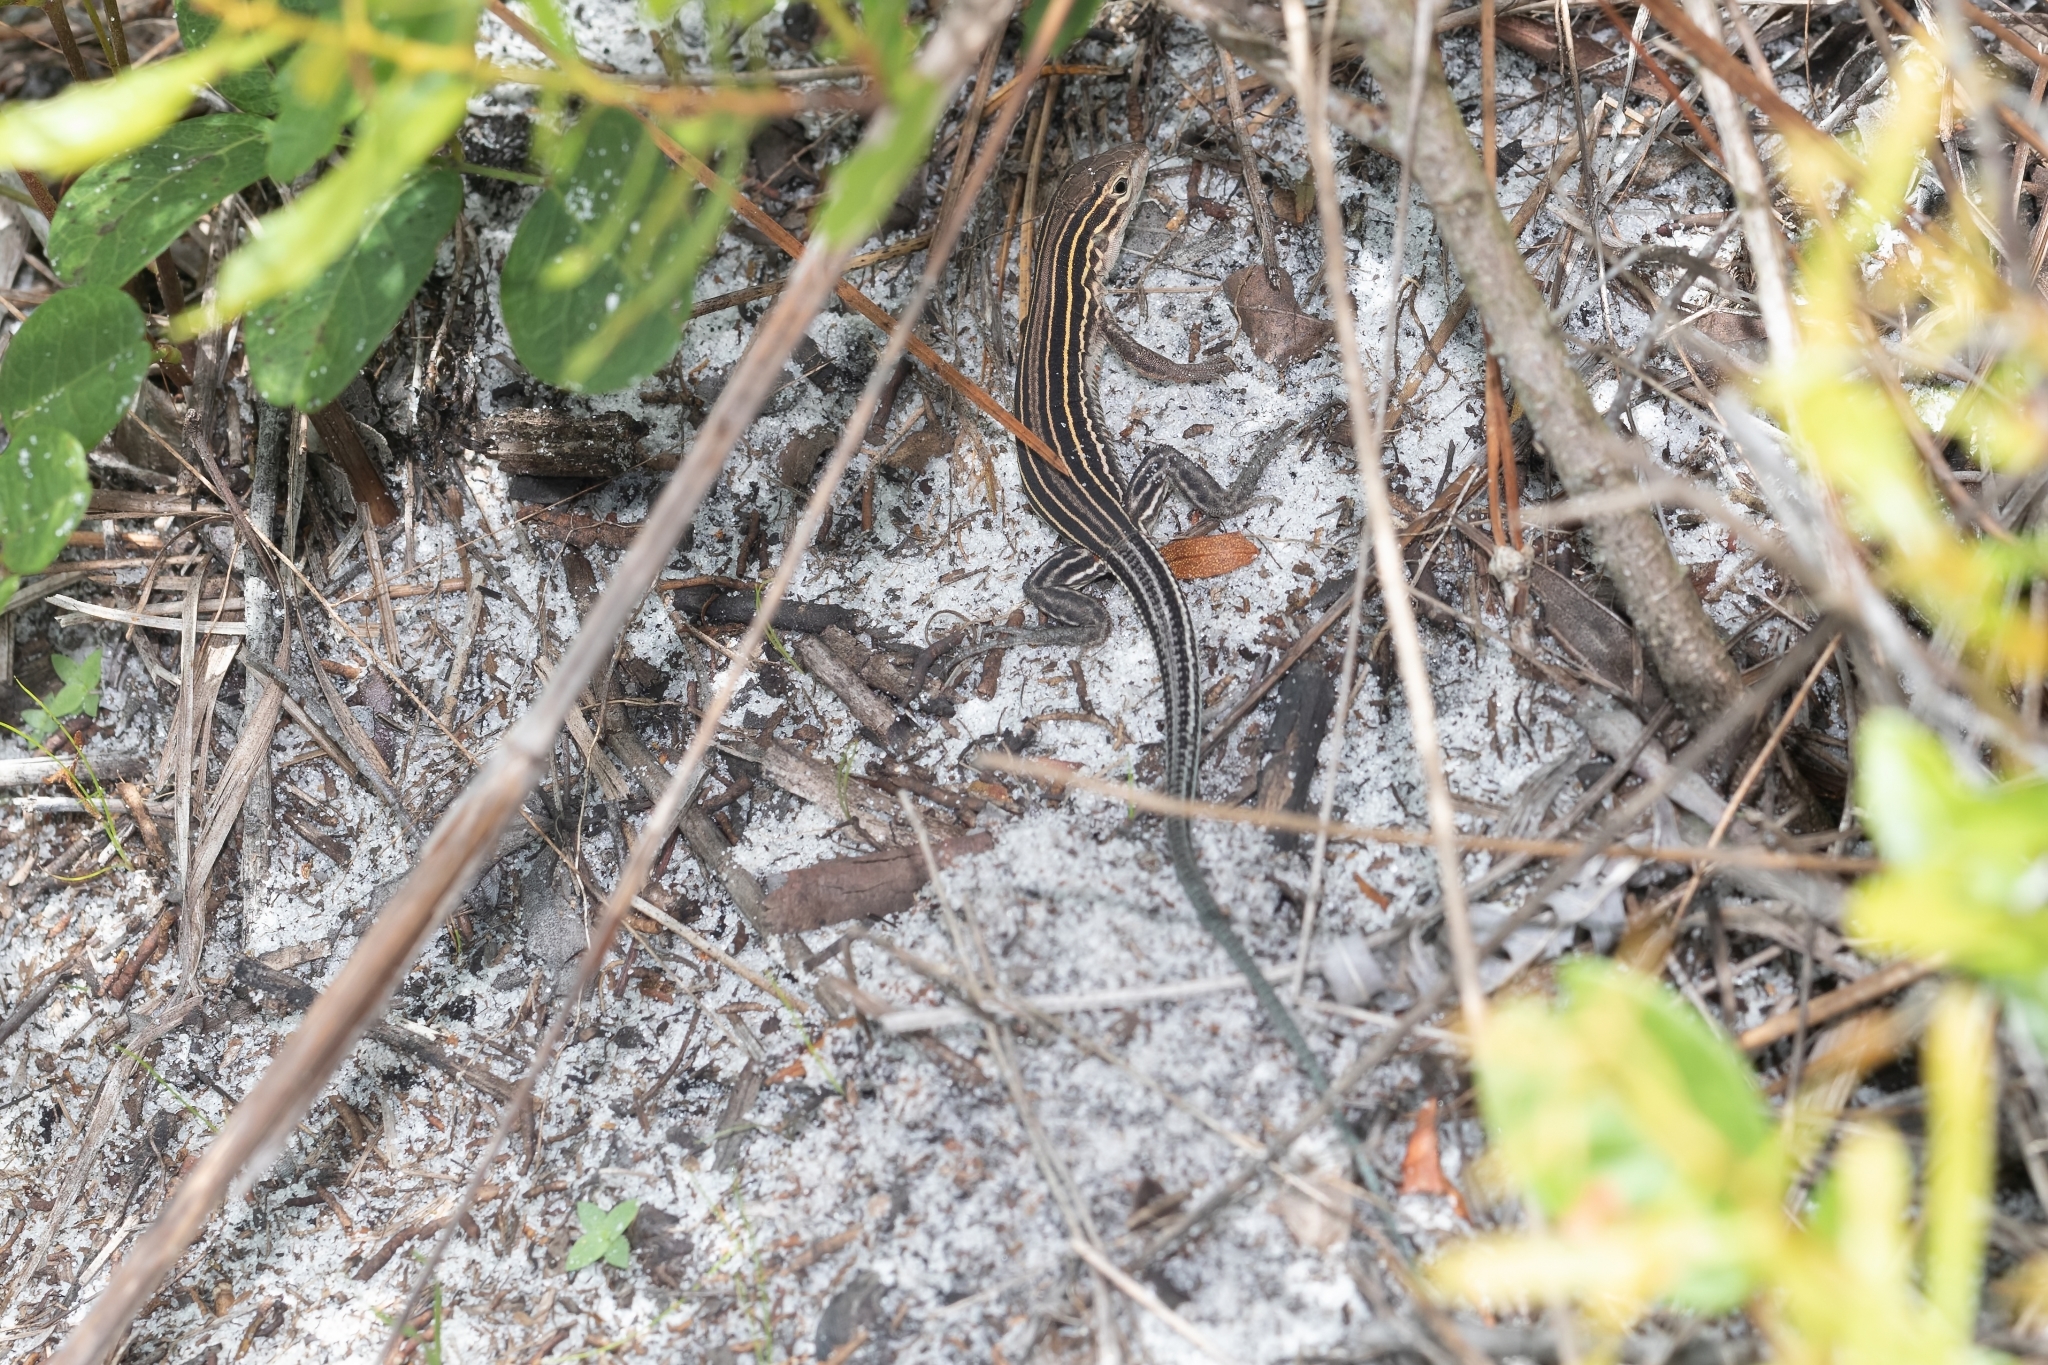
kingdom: Animalia
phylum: Chordata
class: Squamata
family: Teiidae
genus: Aspidoscelis
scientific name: Aspidoscelis sexlineatus
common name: Six-lined racerunner
